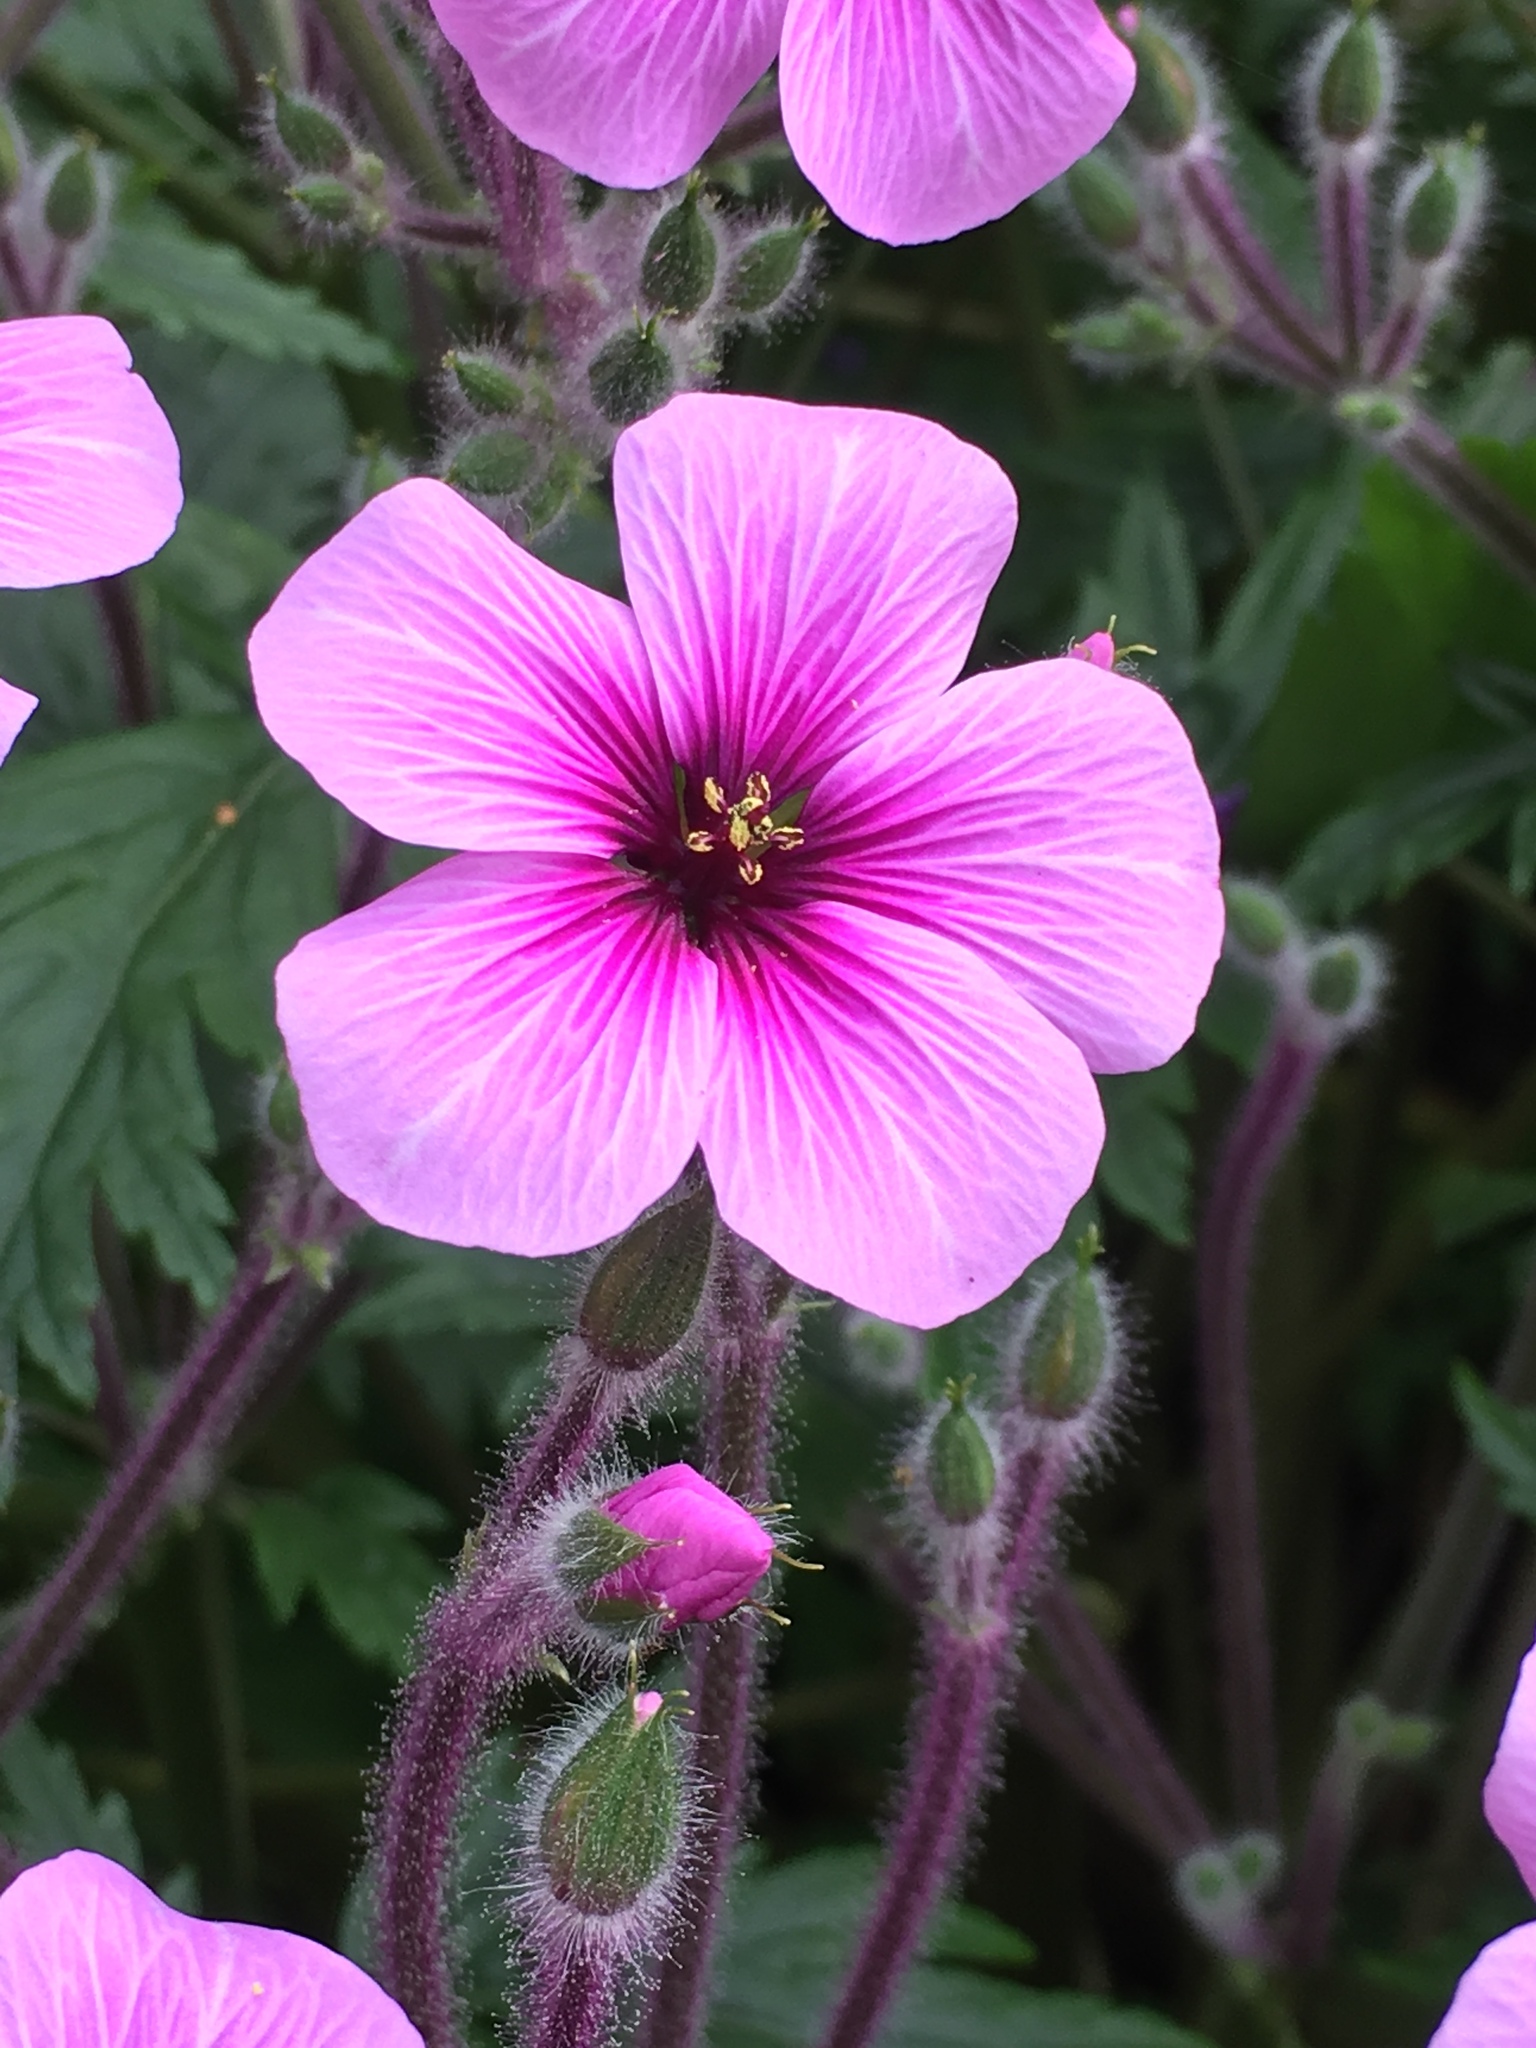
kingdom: Plantae
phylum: Tracheophyta
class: Magnoliopsida
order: Geraniales
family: Geraniaceae
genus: Geranium
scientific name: Geranium maderense
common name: Giant herb-robert
